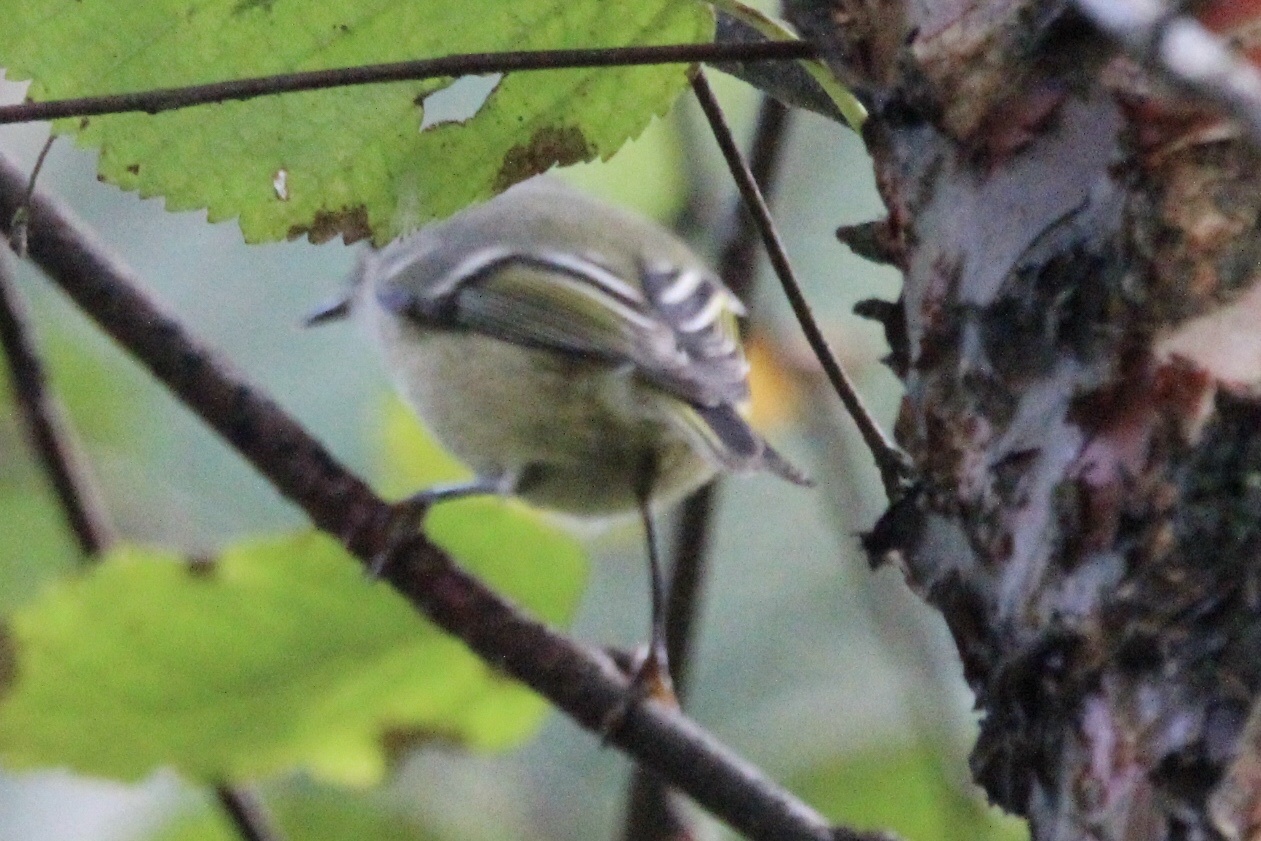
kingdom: Animalia
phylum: Chordata
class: Aves
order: Passeriformes
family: Regulidae
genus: Regulus
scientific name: Regulus calendula
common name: Ruby-crowned kinglet
